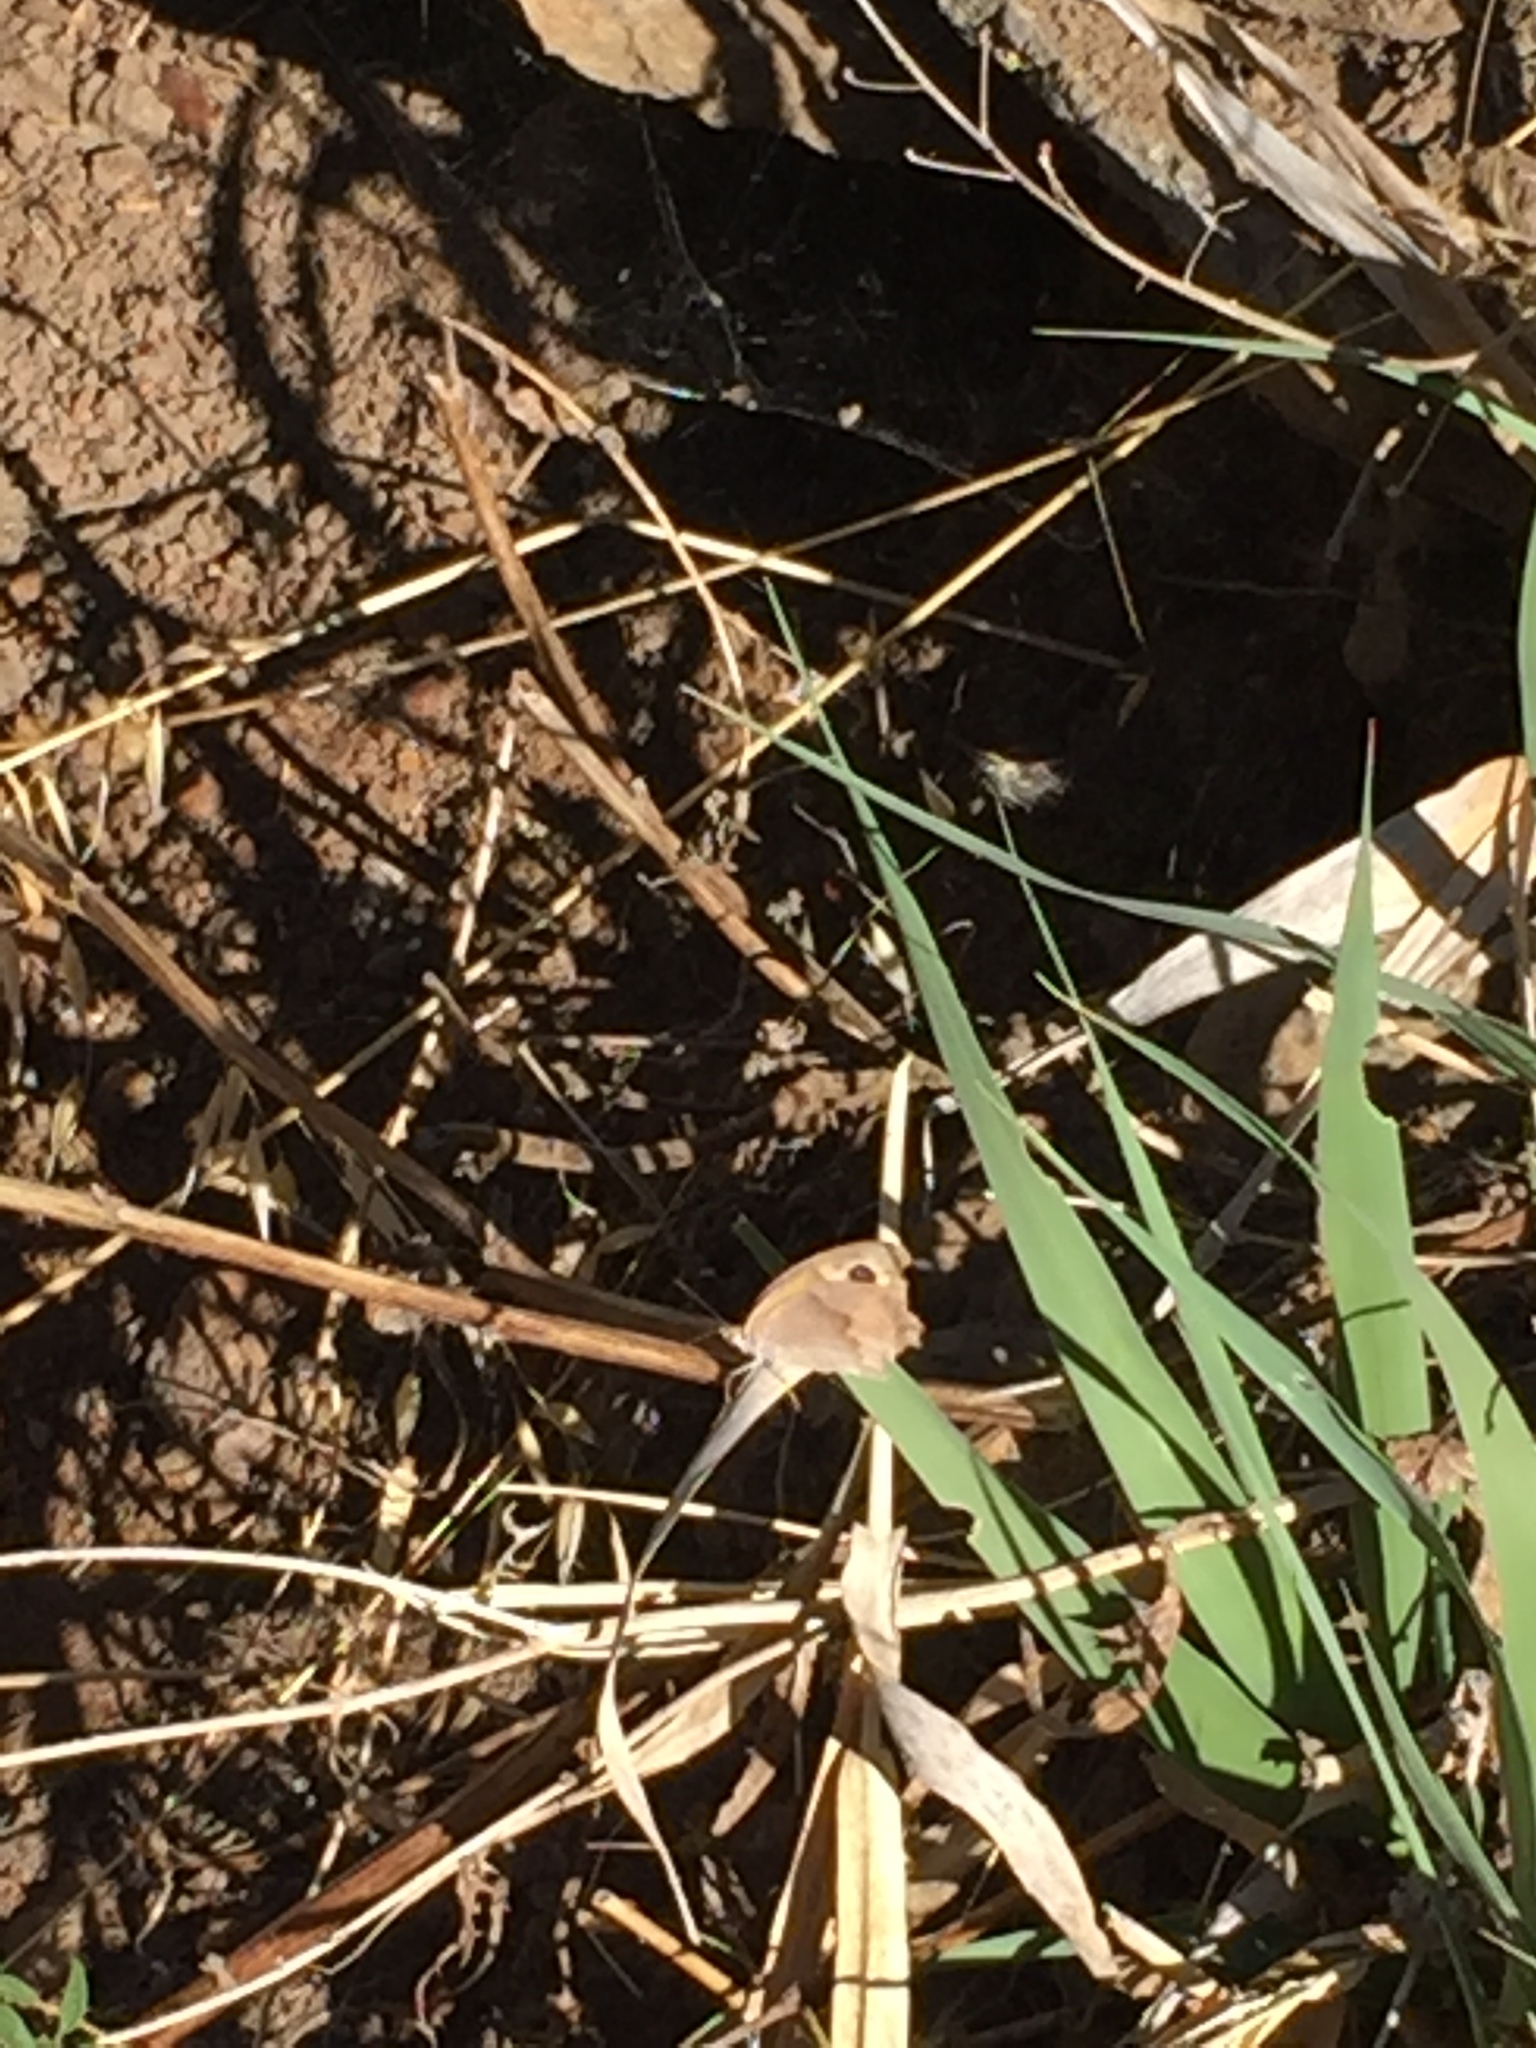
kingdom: Animalia
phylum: Arthropoda
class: Insecta
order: Lepidoptera
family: Nymphalidae
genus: Maniola
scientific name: Maniola jurtina
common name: Meadow brown
